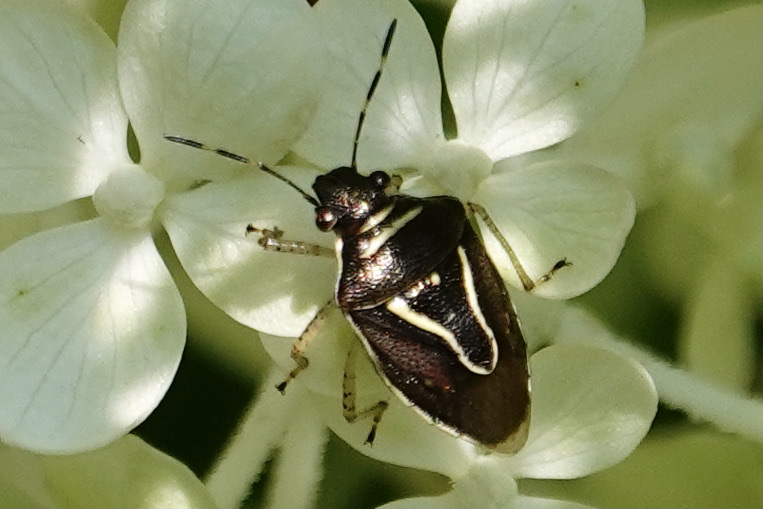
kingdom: Animalia
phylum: Arthropoda
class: Insecta
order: Hemiptera
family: Pentatomidae
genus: Mormidea
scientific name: Mormidea lugens
